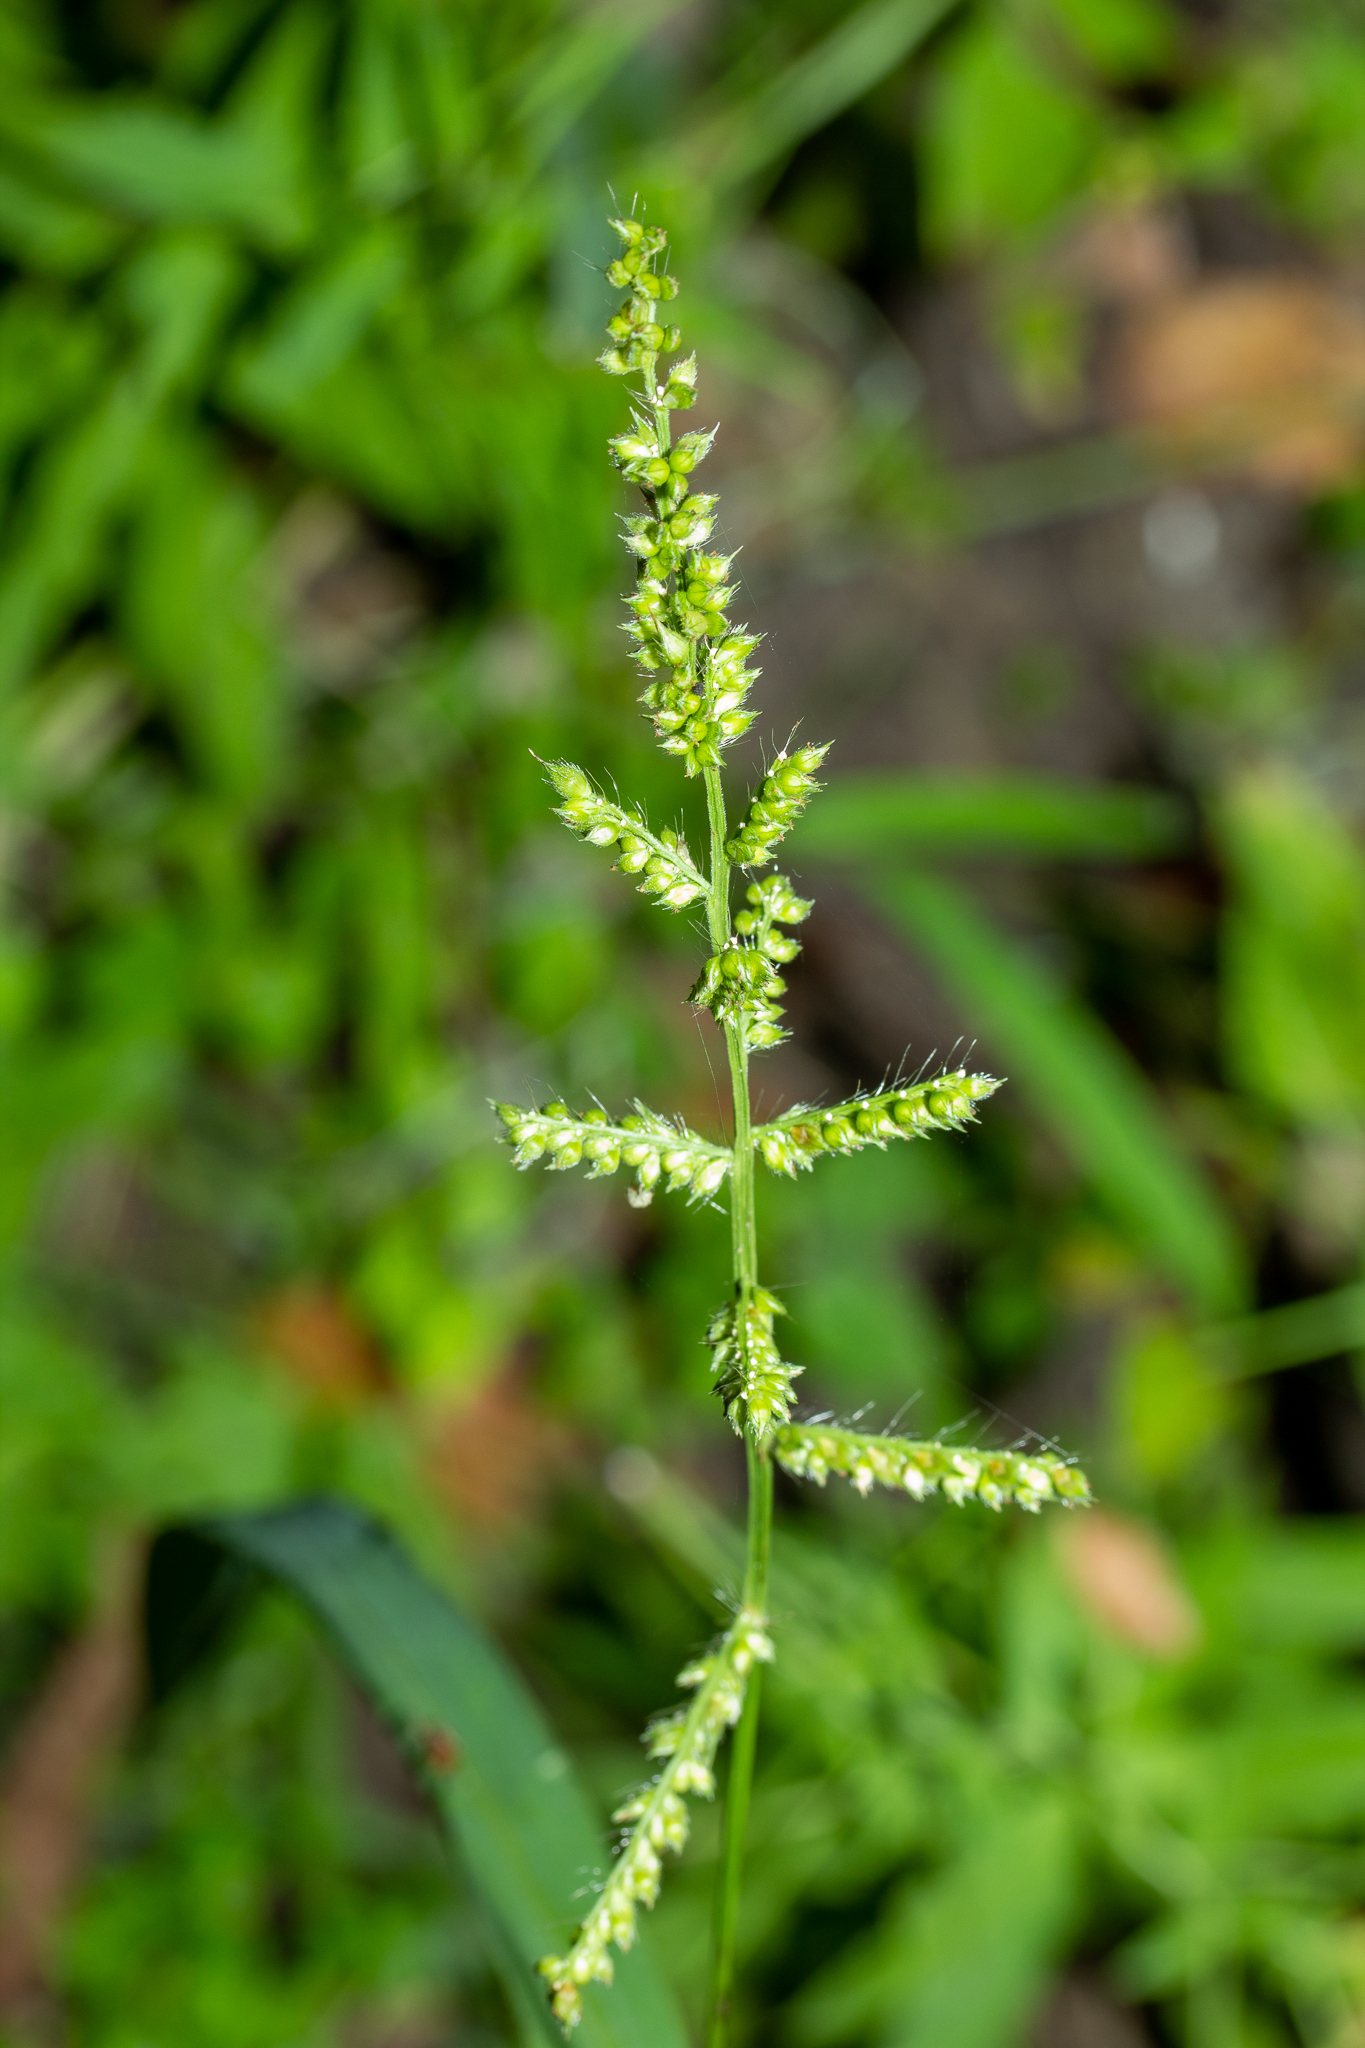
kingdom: Plantae
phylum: Tracheophyta
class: Liliopsida
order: Poales
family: Poaceae
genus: Echinochloa
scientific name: Echinochloa crus-galli
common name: Cockspur
